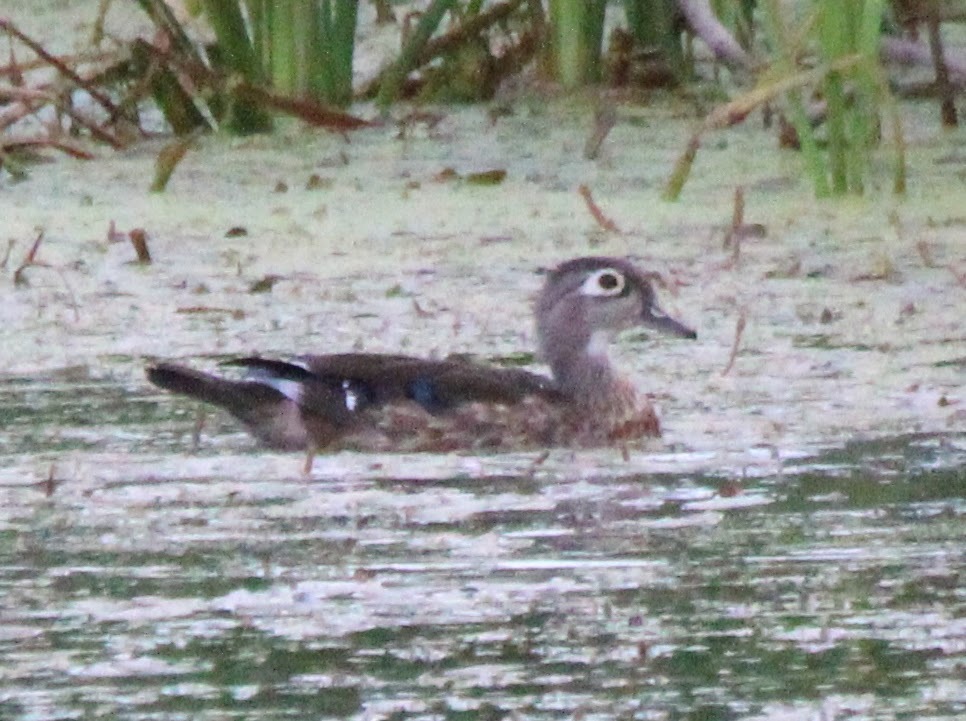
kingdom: Animalia
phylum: Chordata
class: Aves
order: Anseriformes
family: Anatidae
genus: Aix
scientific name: Aix sponsa
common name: Wood duck
